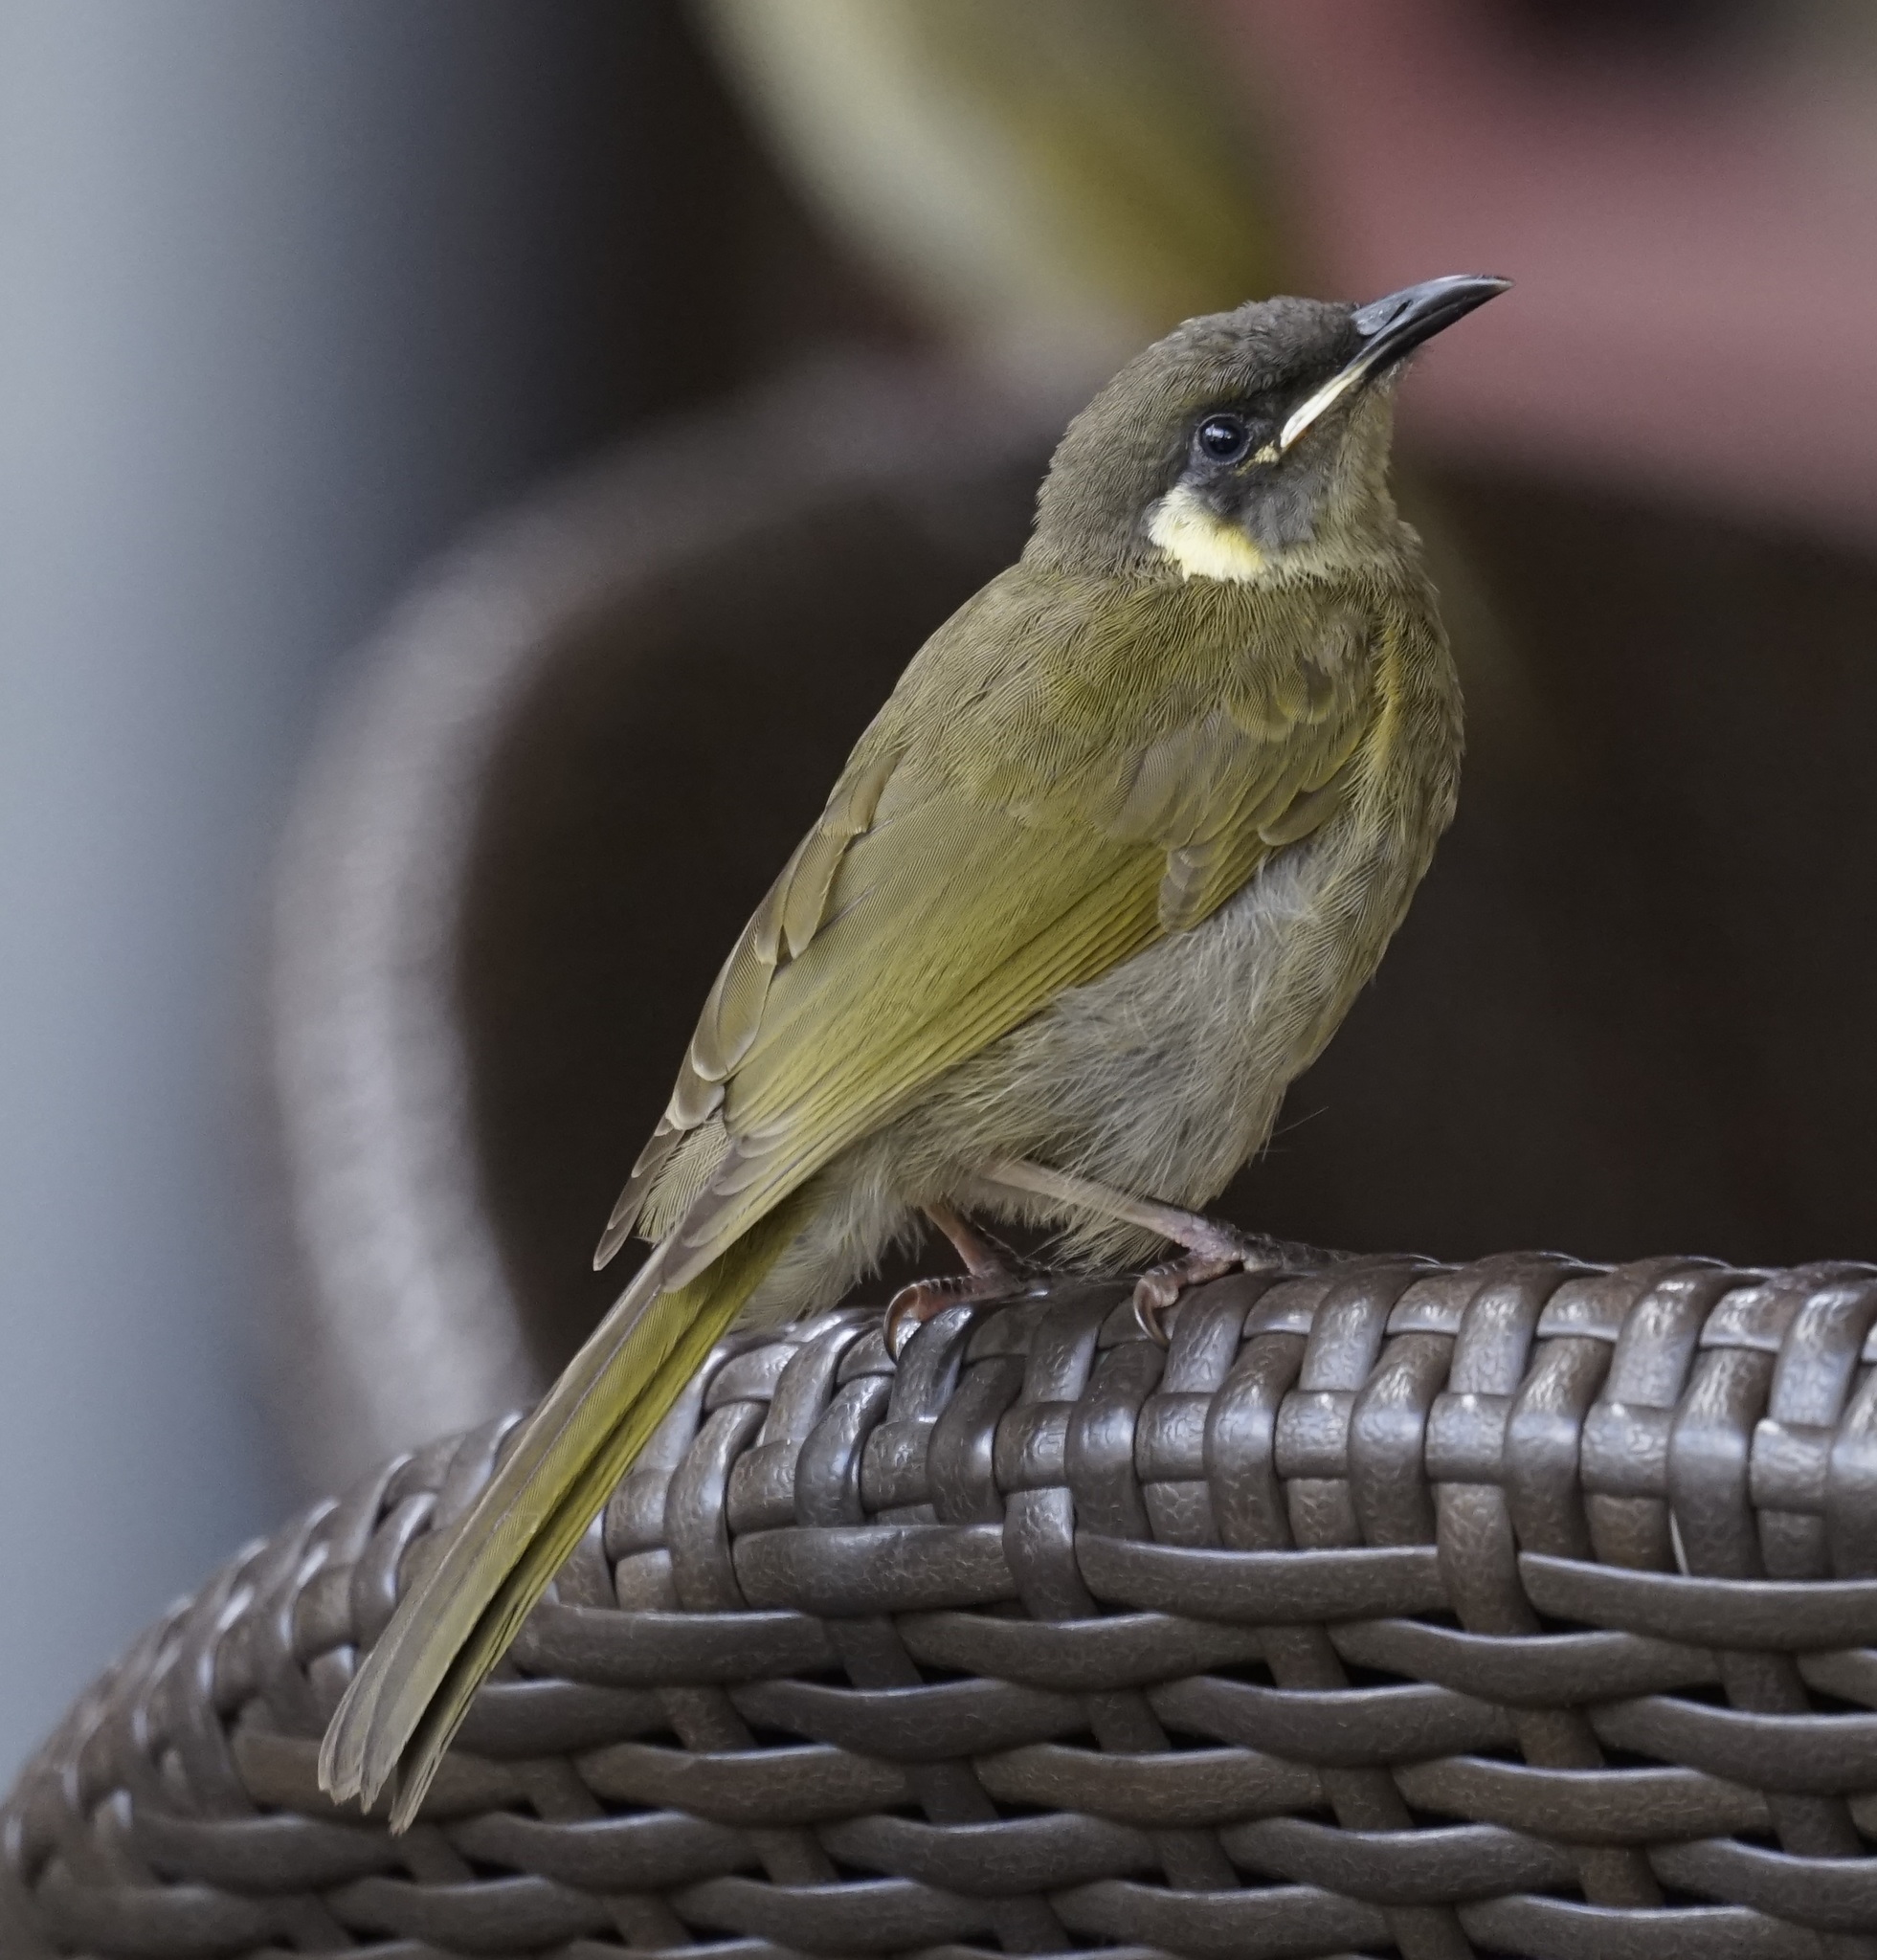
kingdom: Animalia
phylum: Chordata
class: Aves
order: Passeriformes
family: Meliphagidae
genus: Meliphaga
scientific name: Meliphaga lewinii
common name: Lewin's honeyeater
